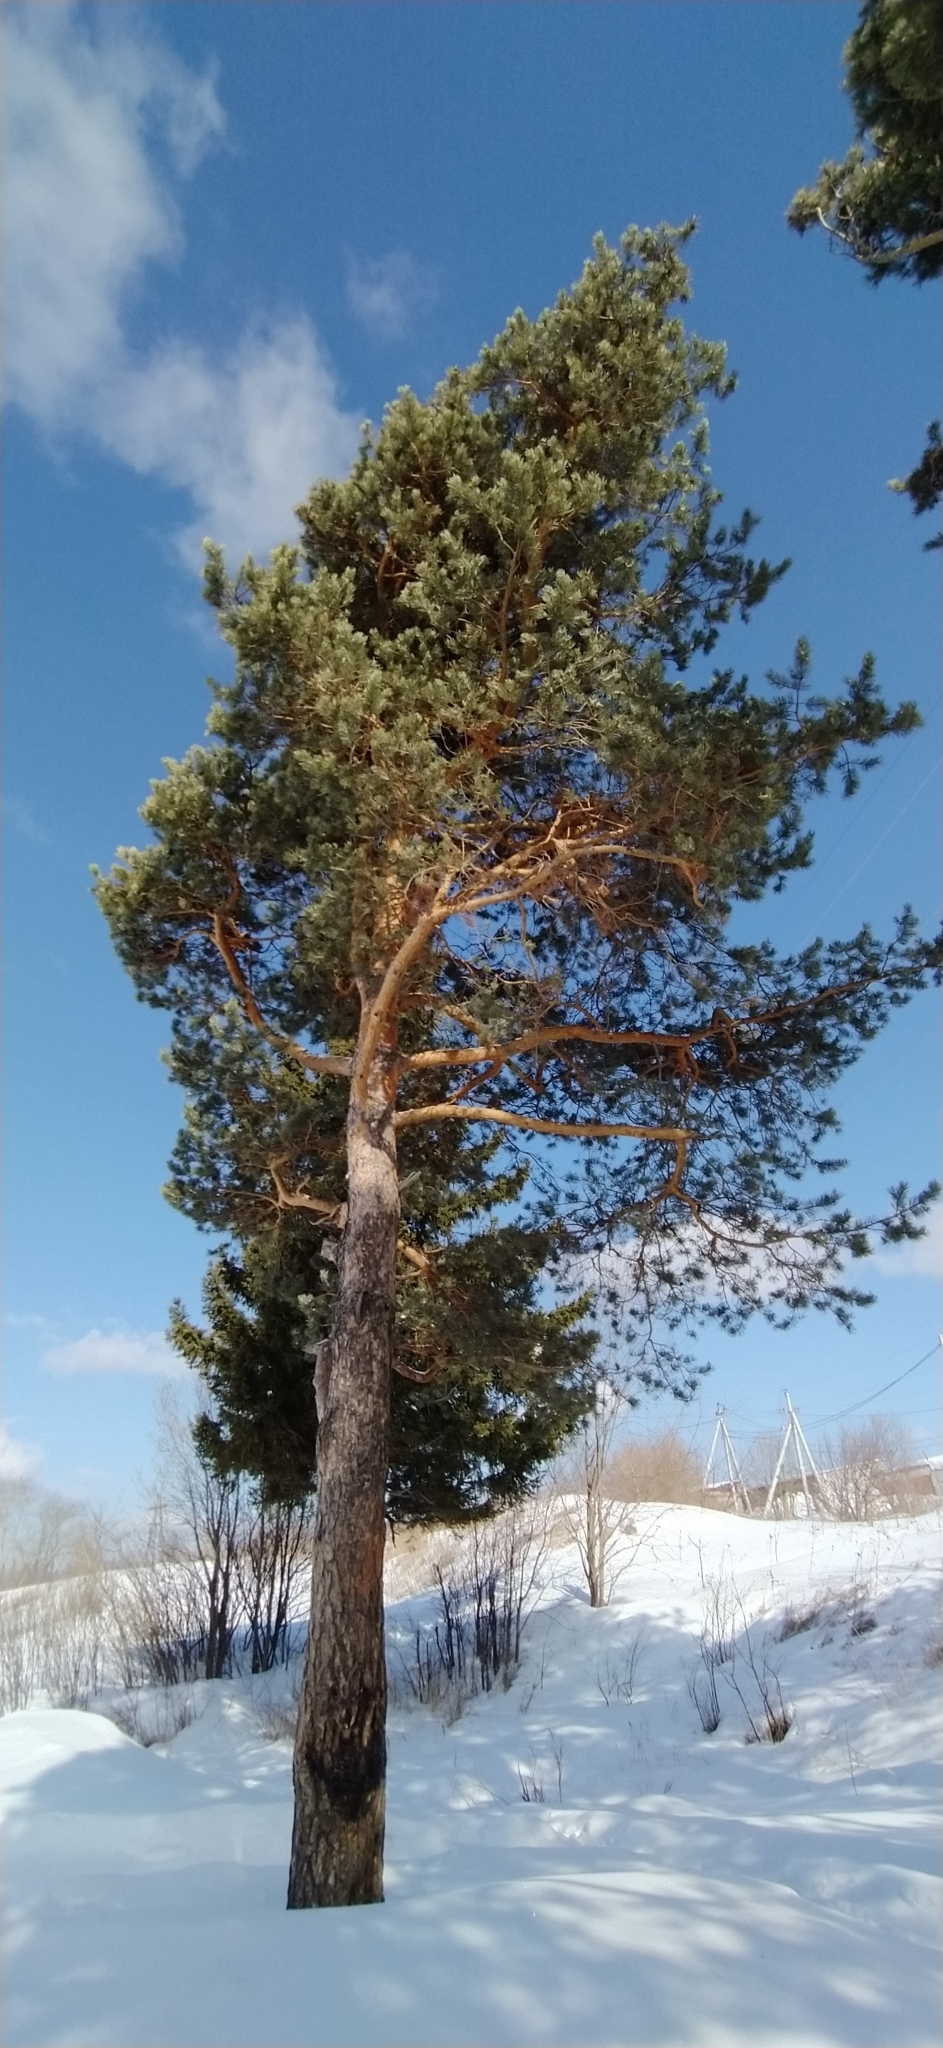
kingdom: Plantae
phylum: Tracheophyta
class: Pinopsida
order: Pinales
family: Pinaceae
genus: Pinus
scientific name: Pinus sylvestris
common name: Scots pine
